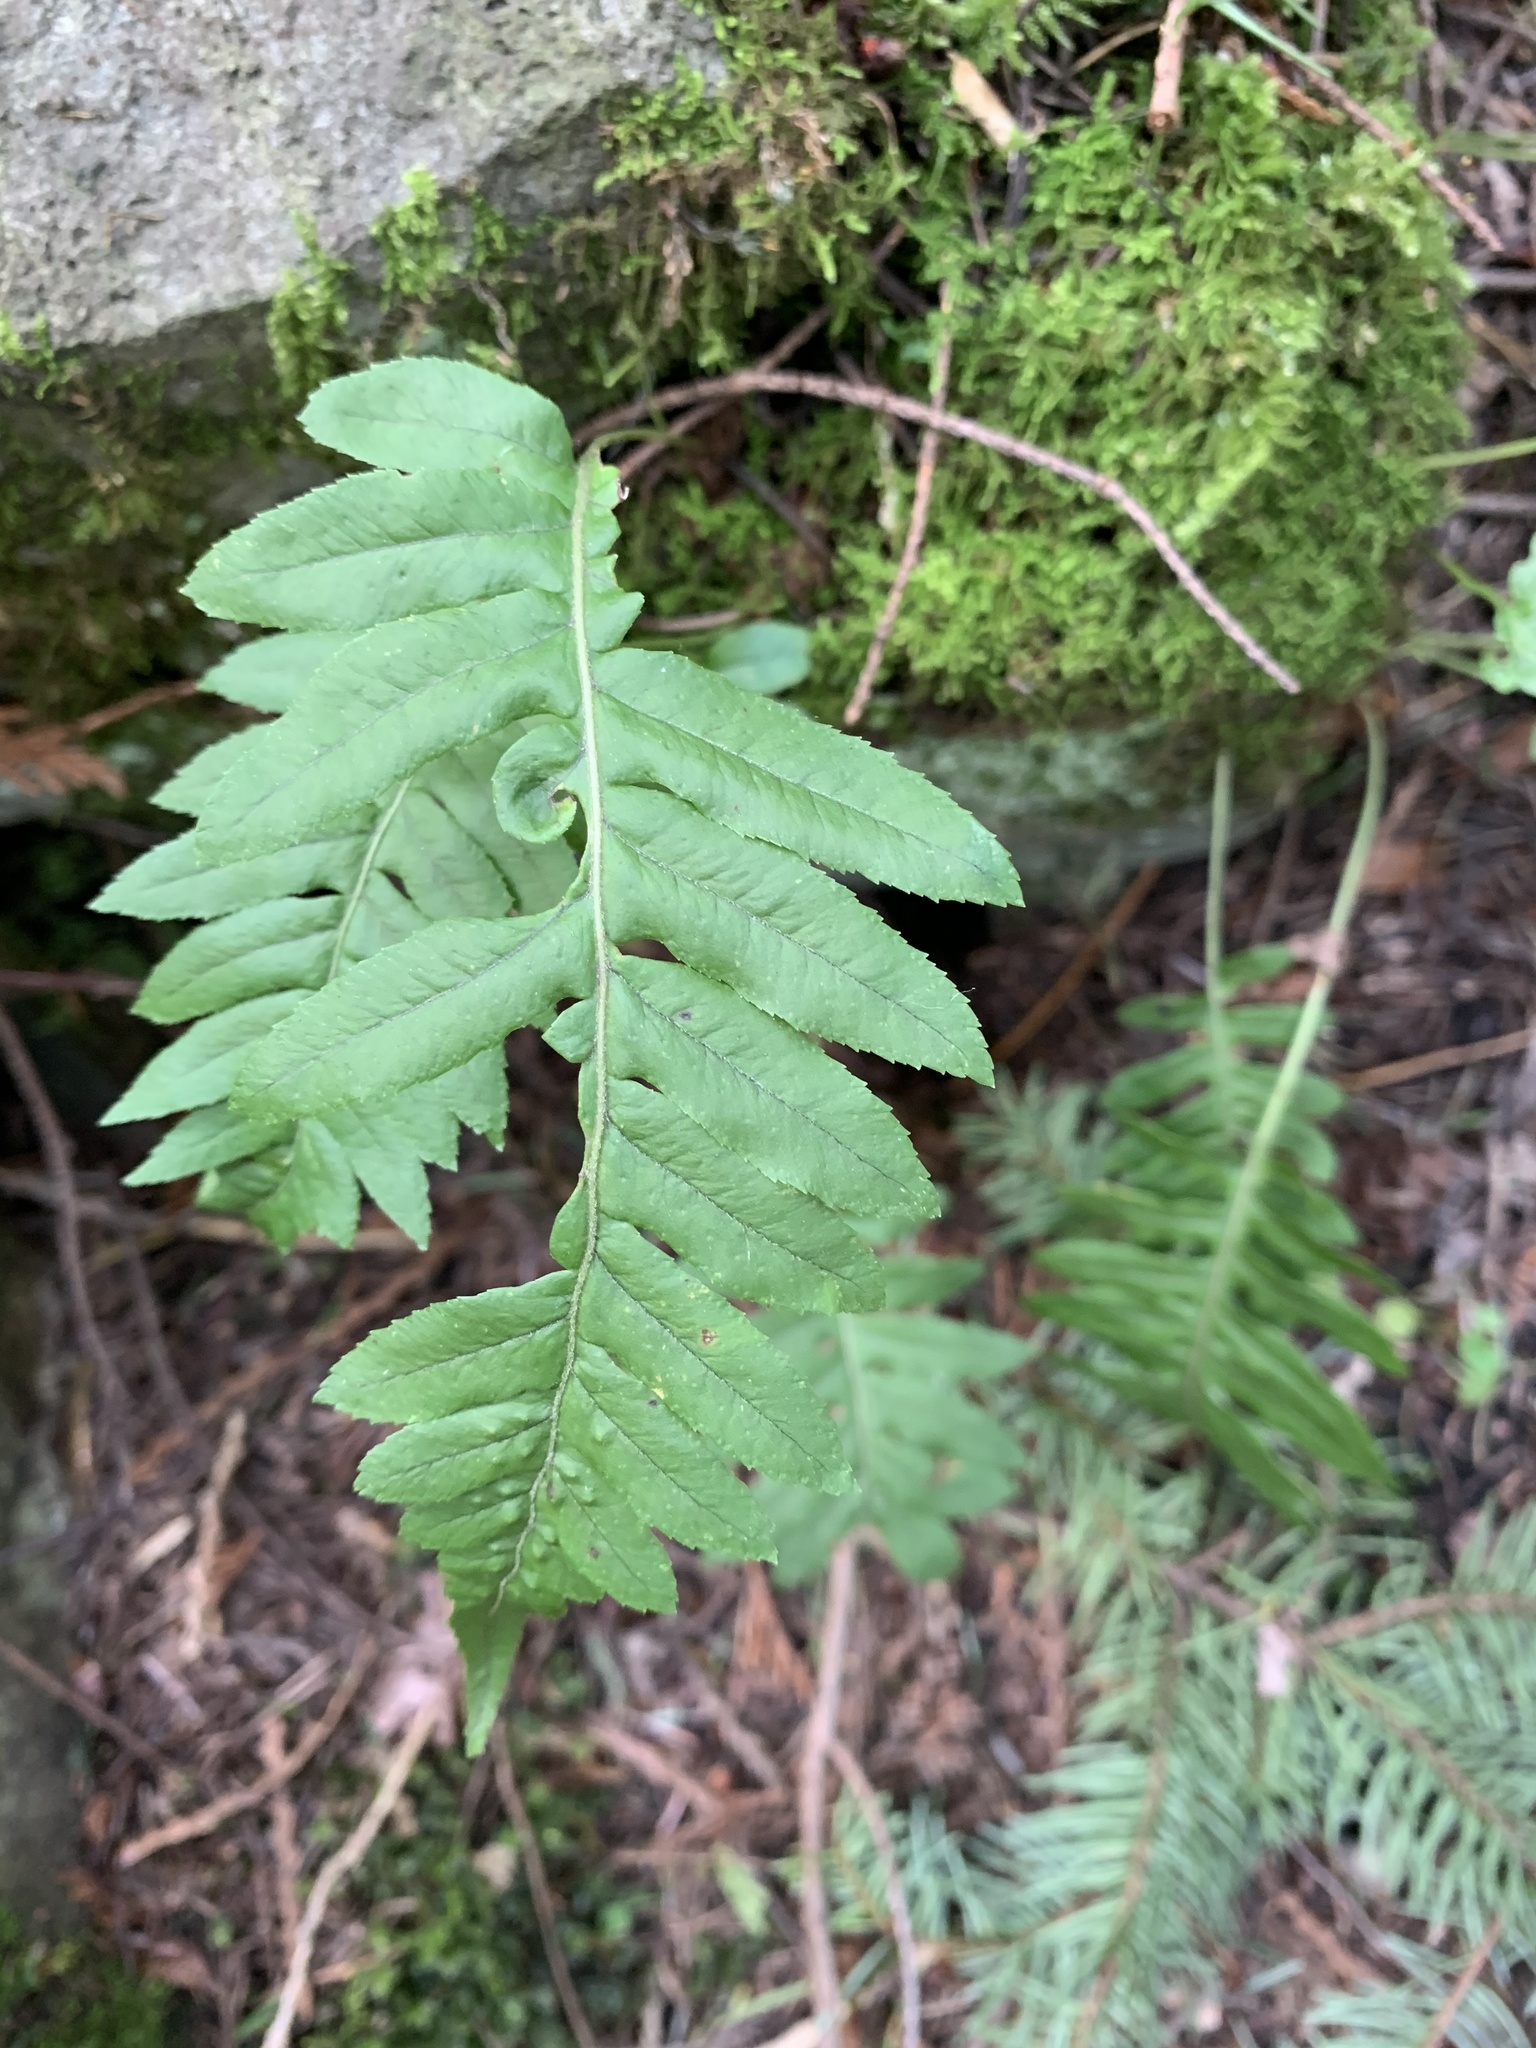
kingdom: Plantae
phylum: Tracheophyta
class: Polypodiopsida
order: Polypodiales
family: Polypodiaceae
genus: Polypodium
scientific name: Polypodium glycyrrhiza
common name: Licorice fern
